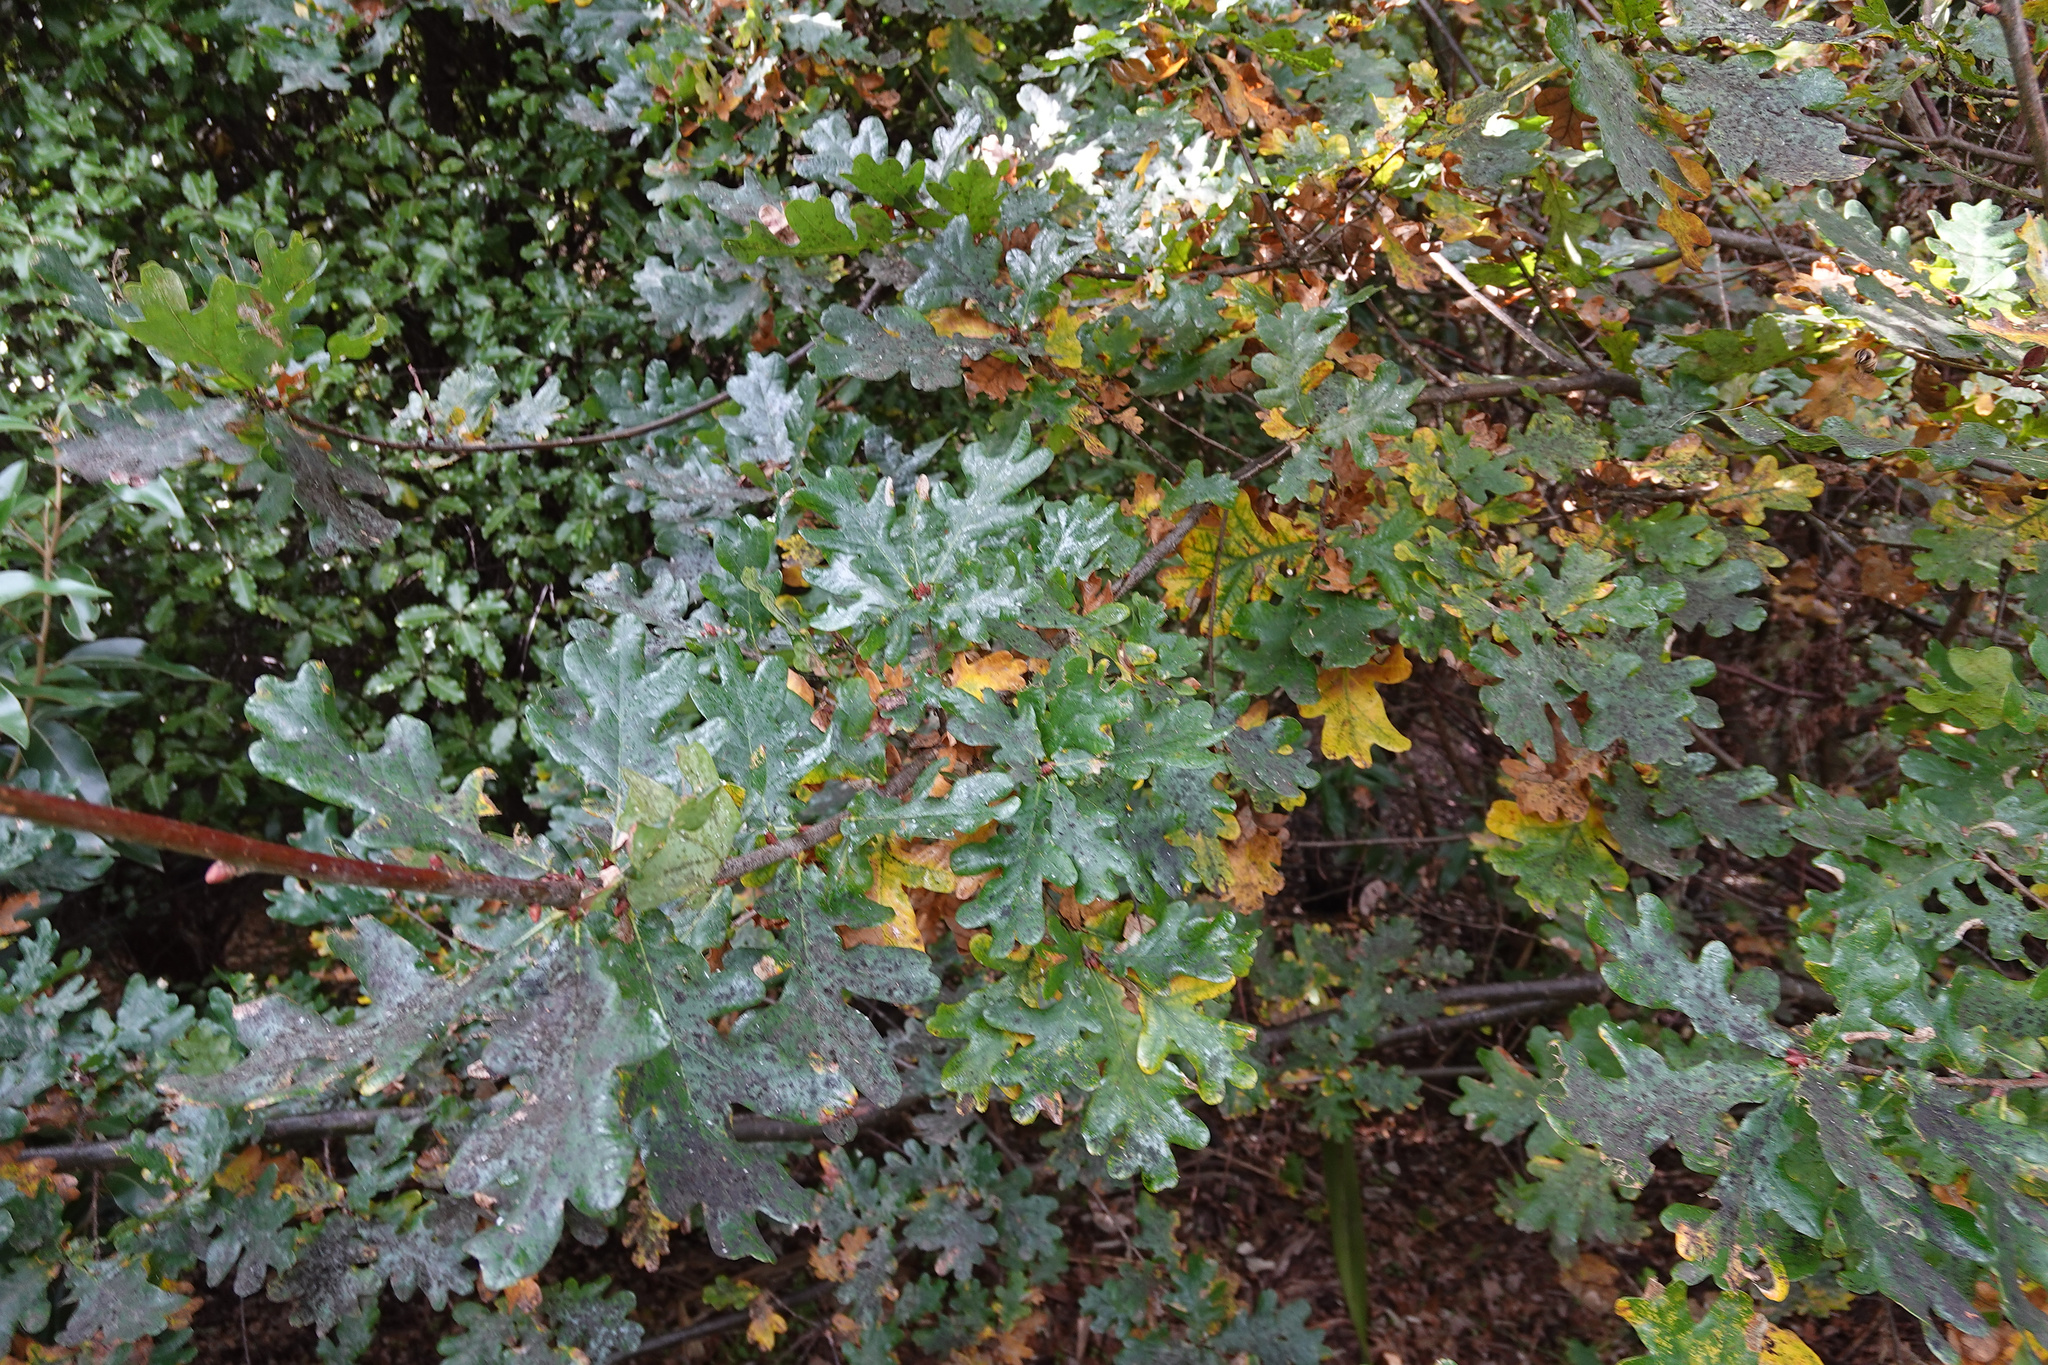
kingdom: Plantae
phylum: Tracheophyta
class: Magnoliopsida
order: Fagales
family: Fagaceae
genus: Quercus
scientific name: Quercus robur
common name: Pedunculate oak
